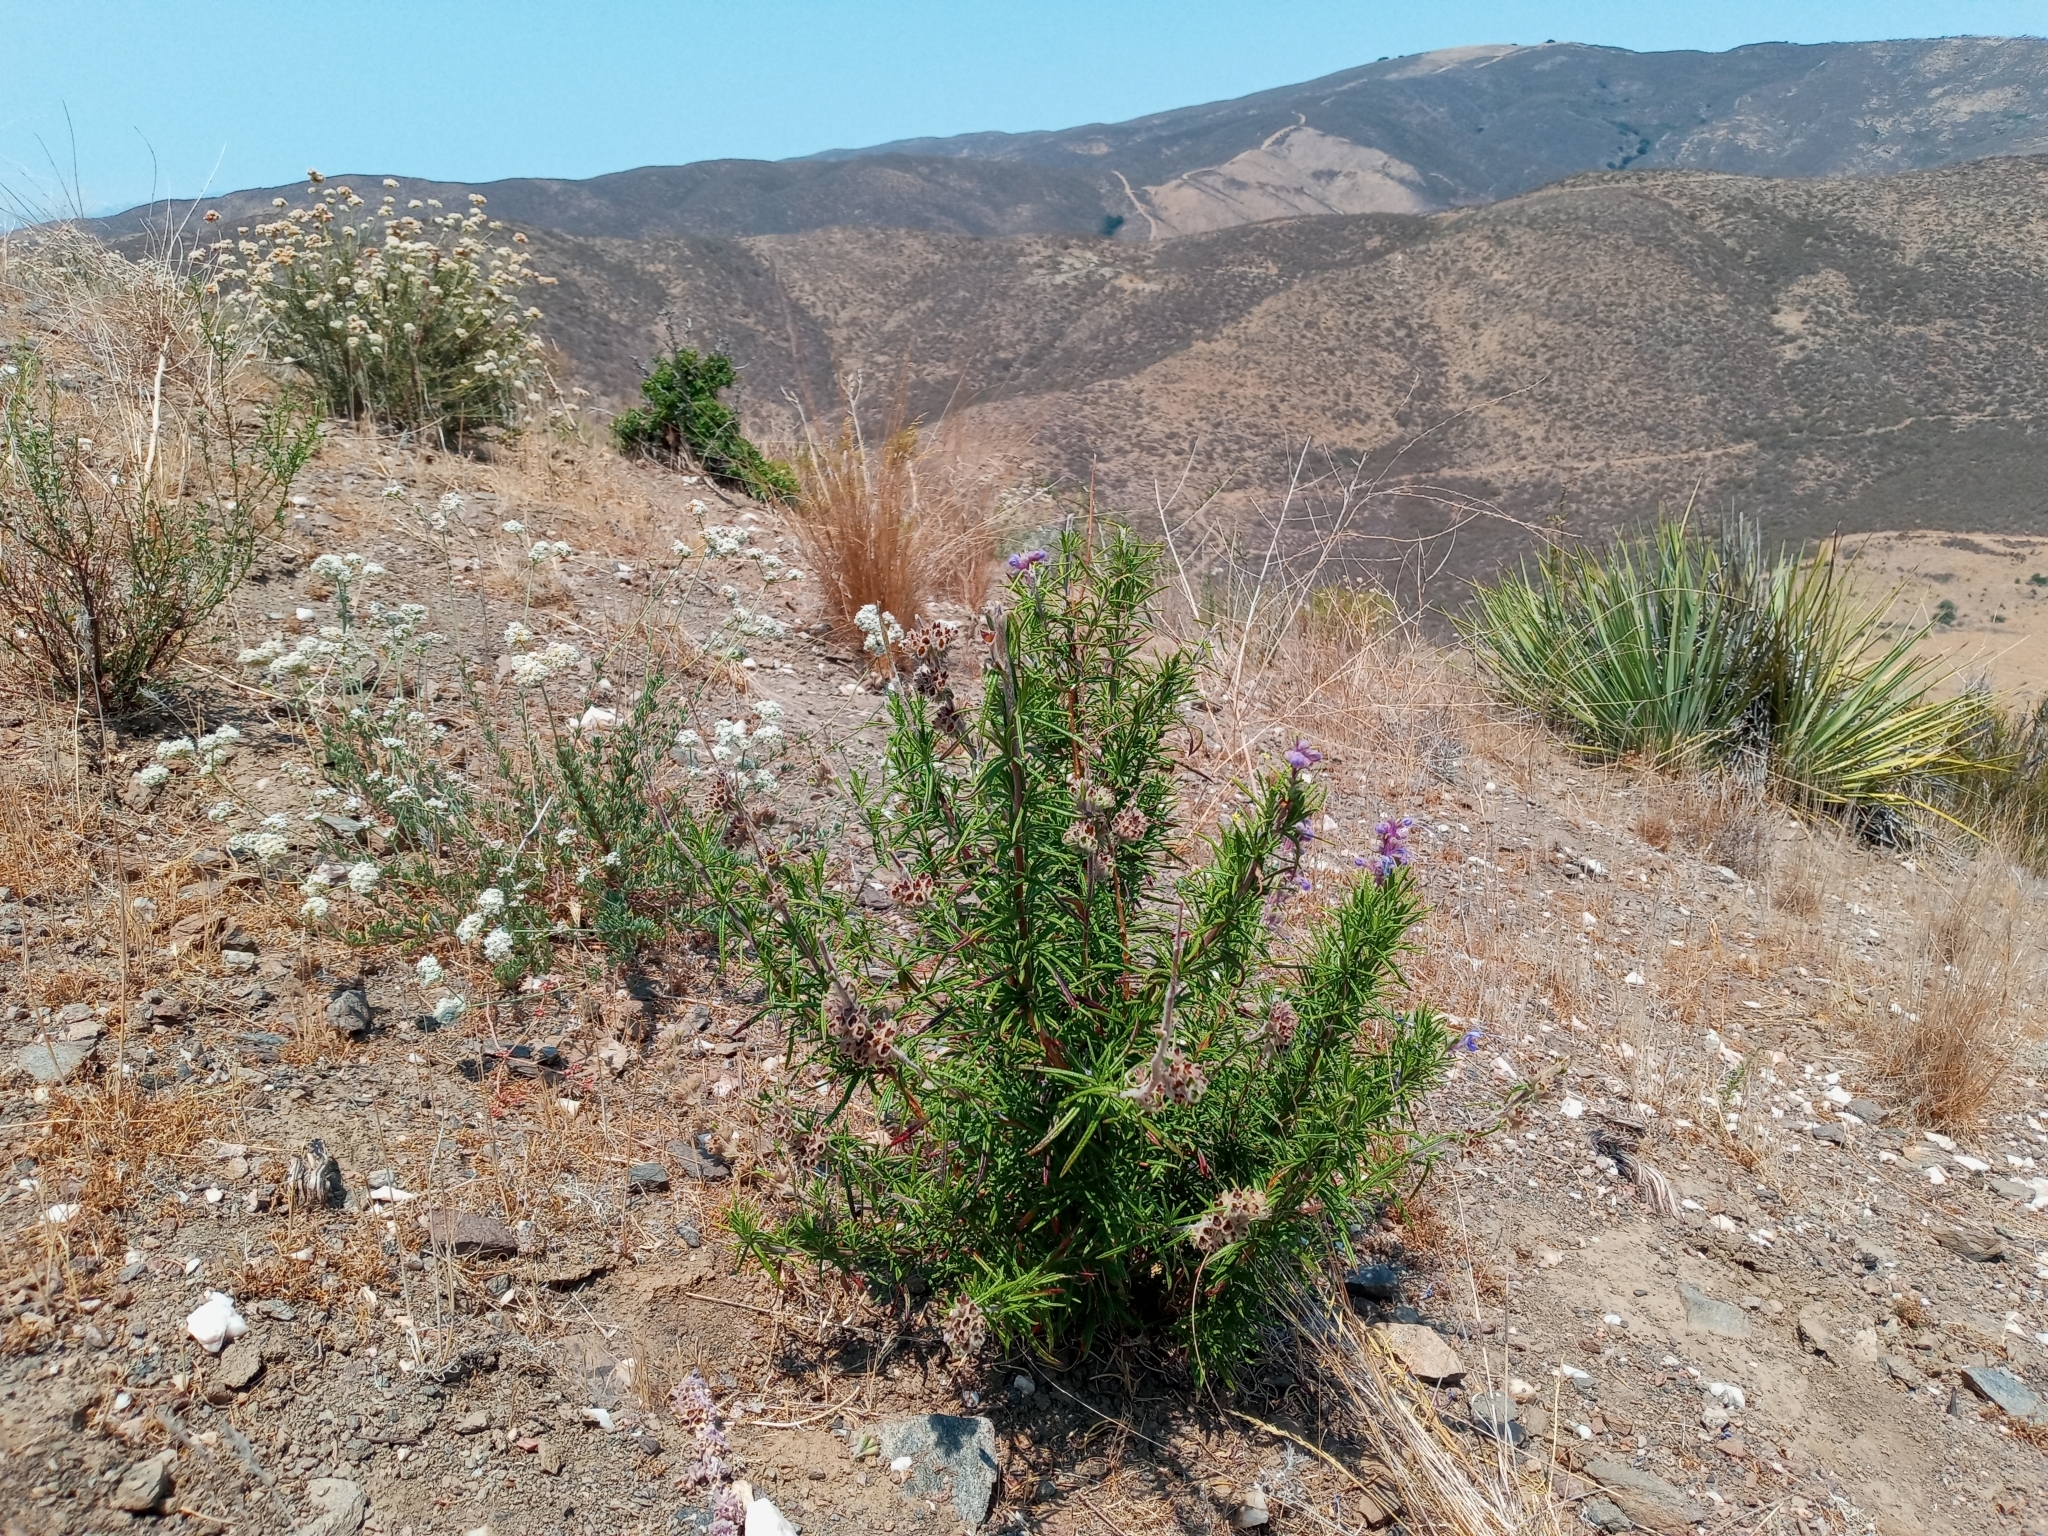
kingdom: Plantae
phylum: Tracheophyta
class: Magnoliopsida
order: Lamiales
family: Lamiaceae
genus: Trichostema
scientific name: Trichostema lanatum
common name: Woolly bluecurls
